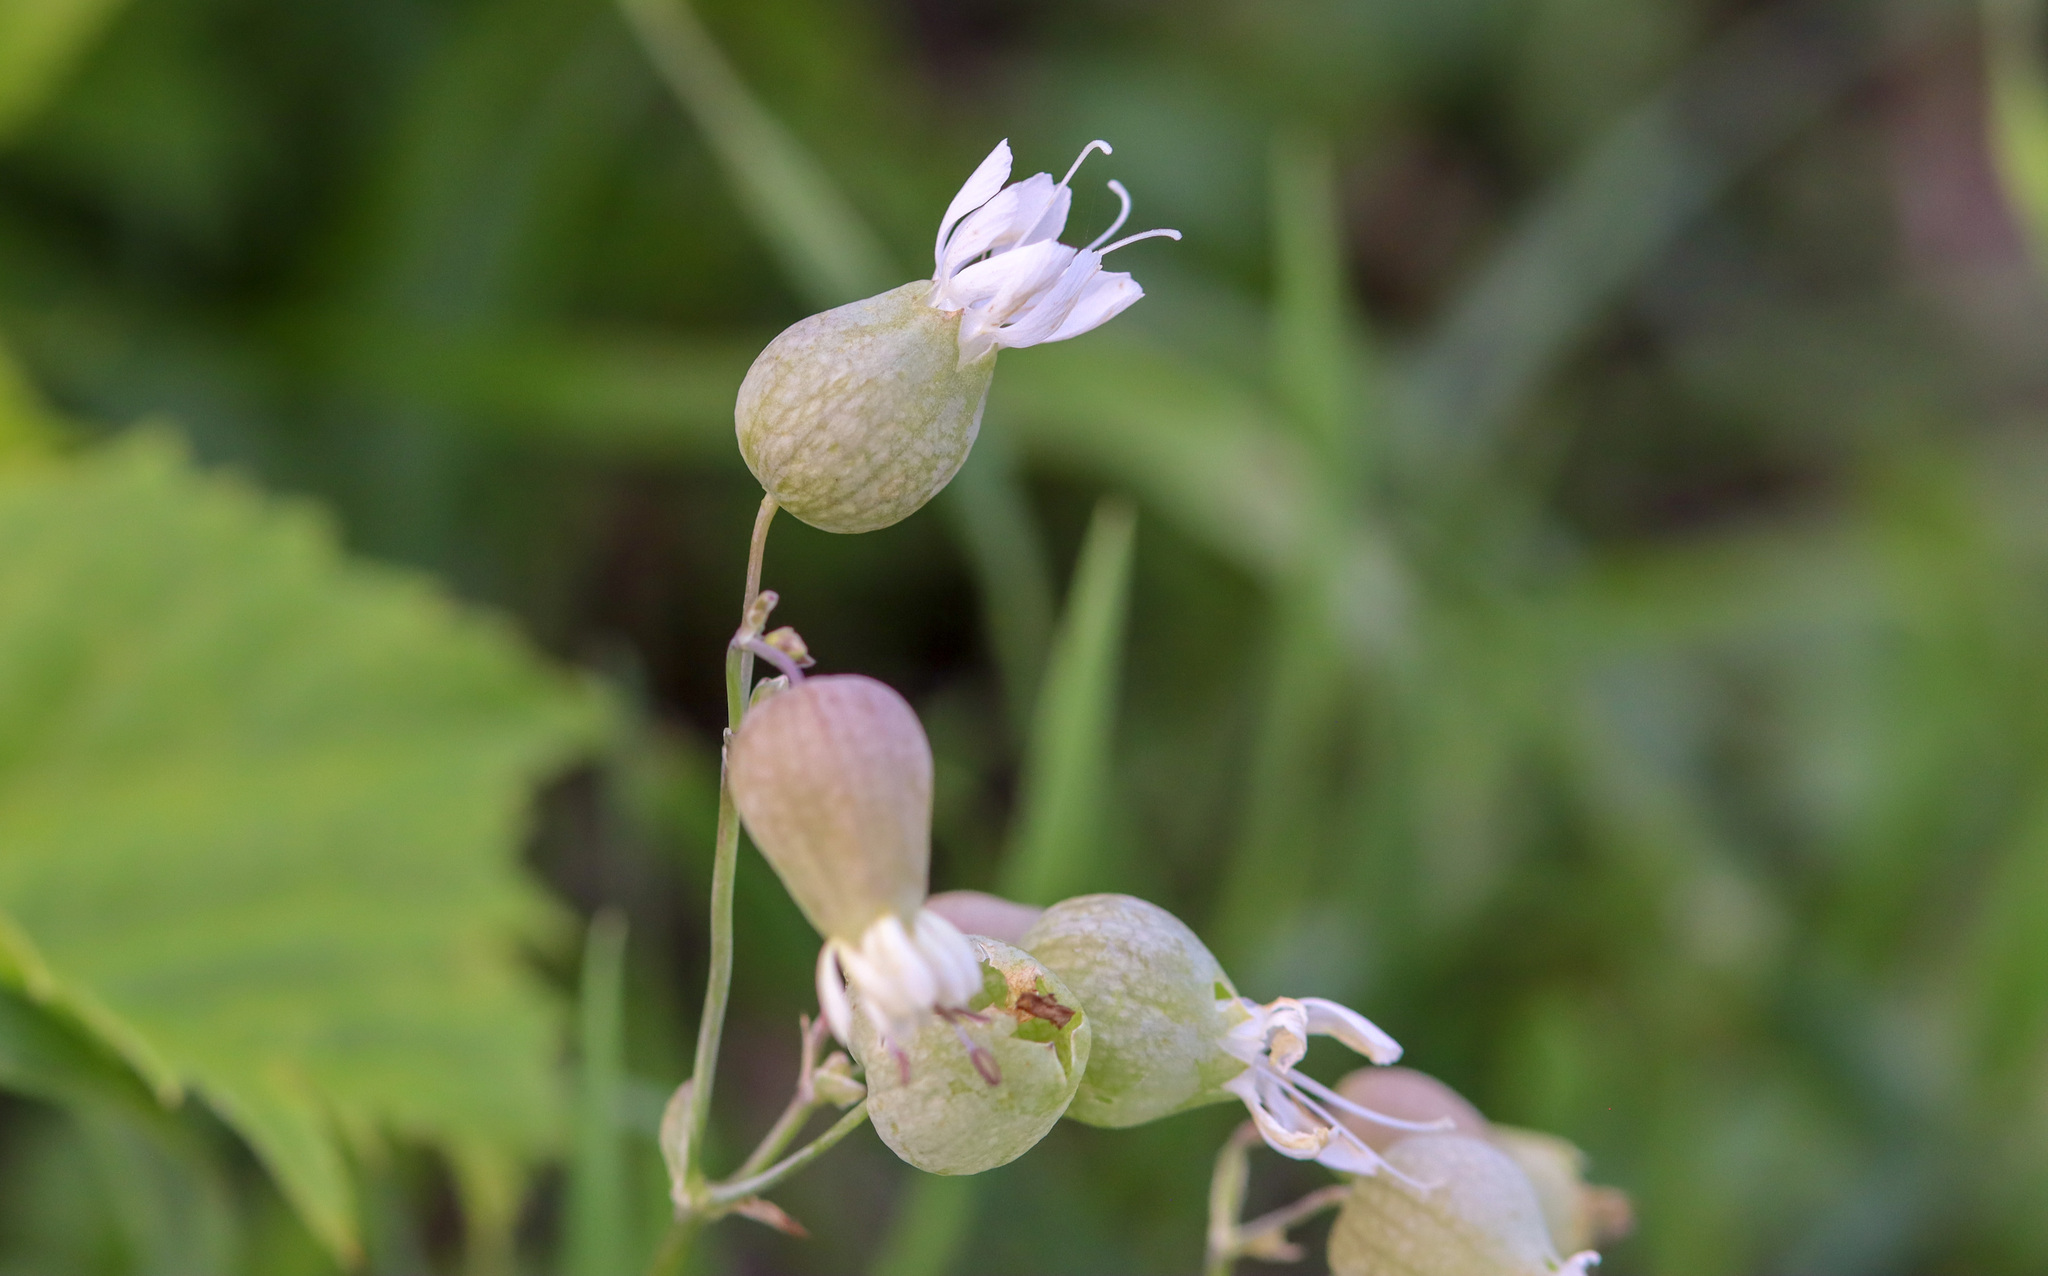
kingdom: Plantae
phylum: Tracheophyta
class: Magnoliopsida
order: Caryophyllales
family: Caryophyllaceae
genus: Silene
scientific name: Silene vulgaris
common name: Bladder campion
